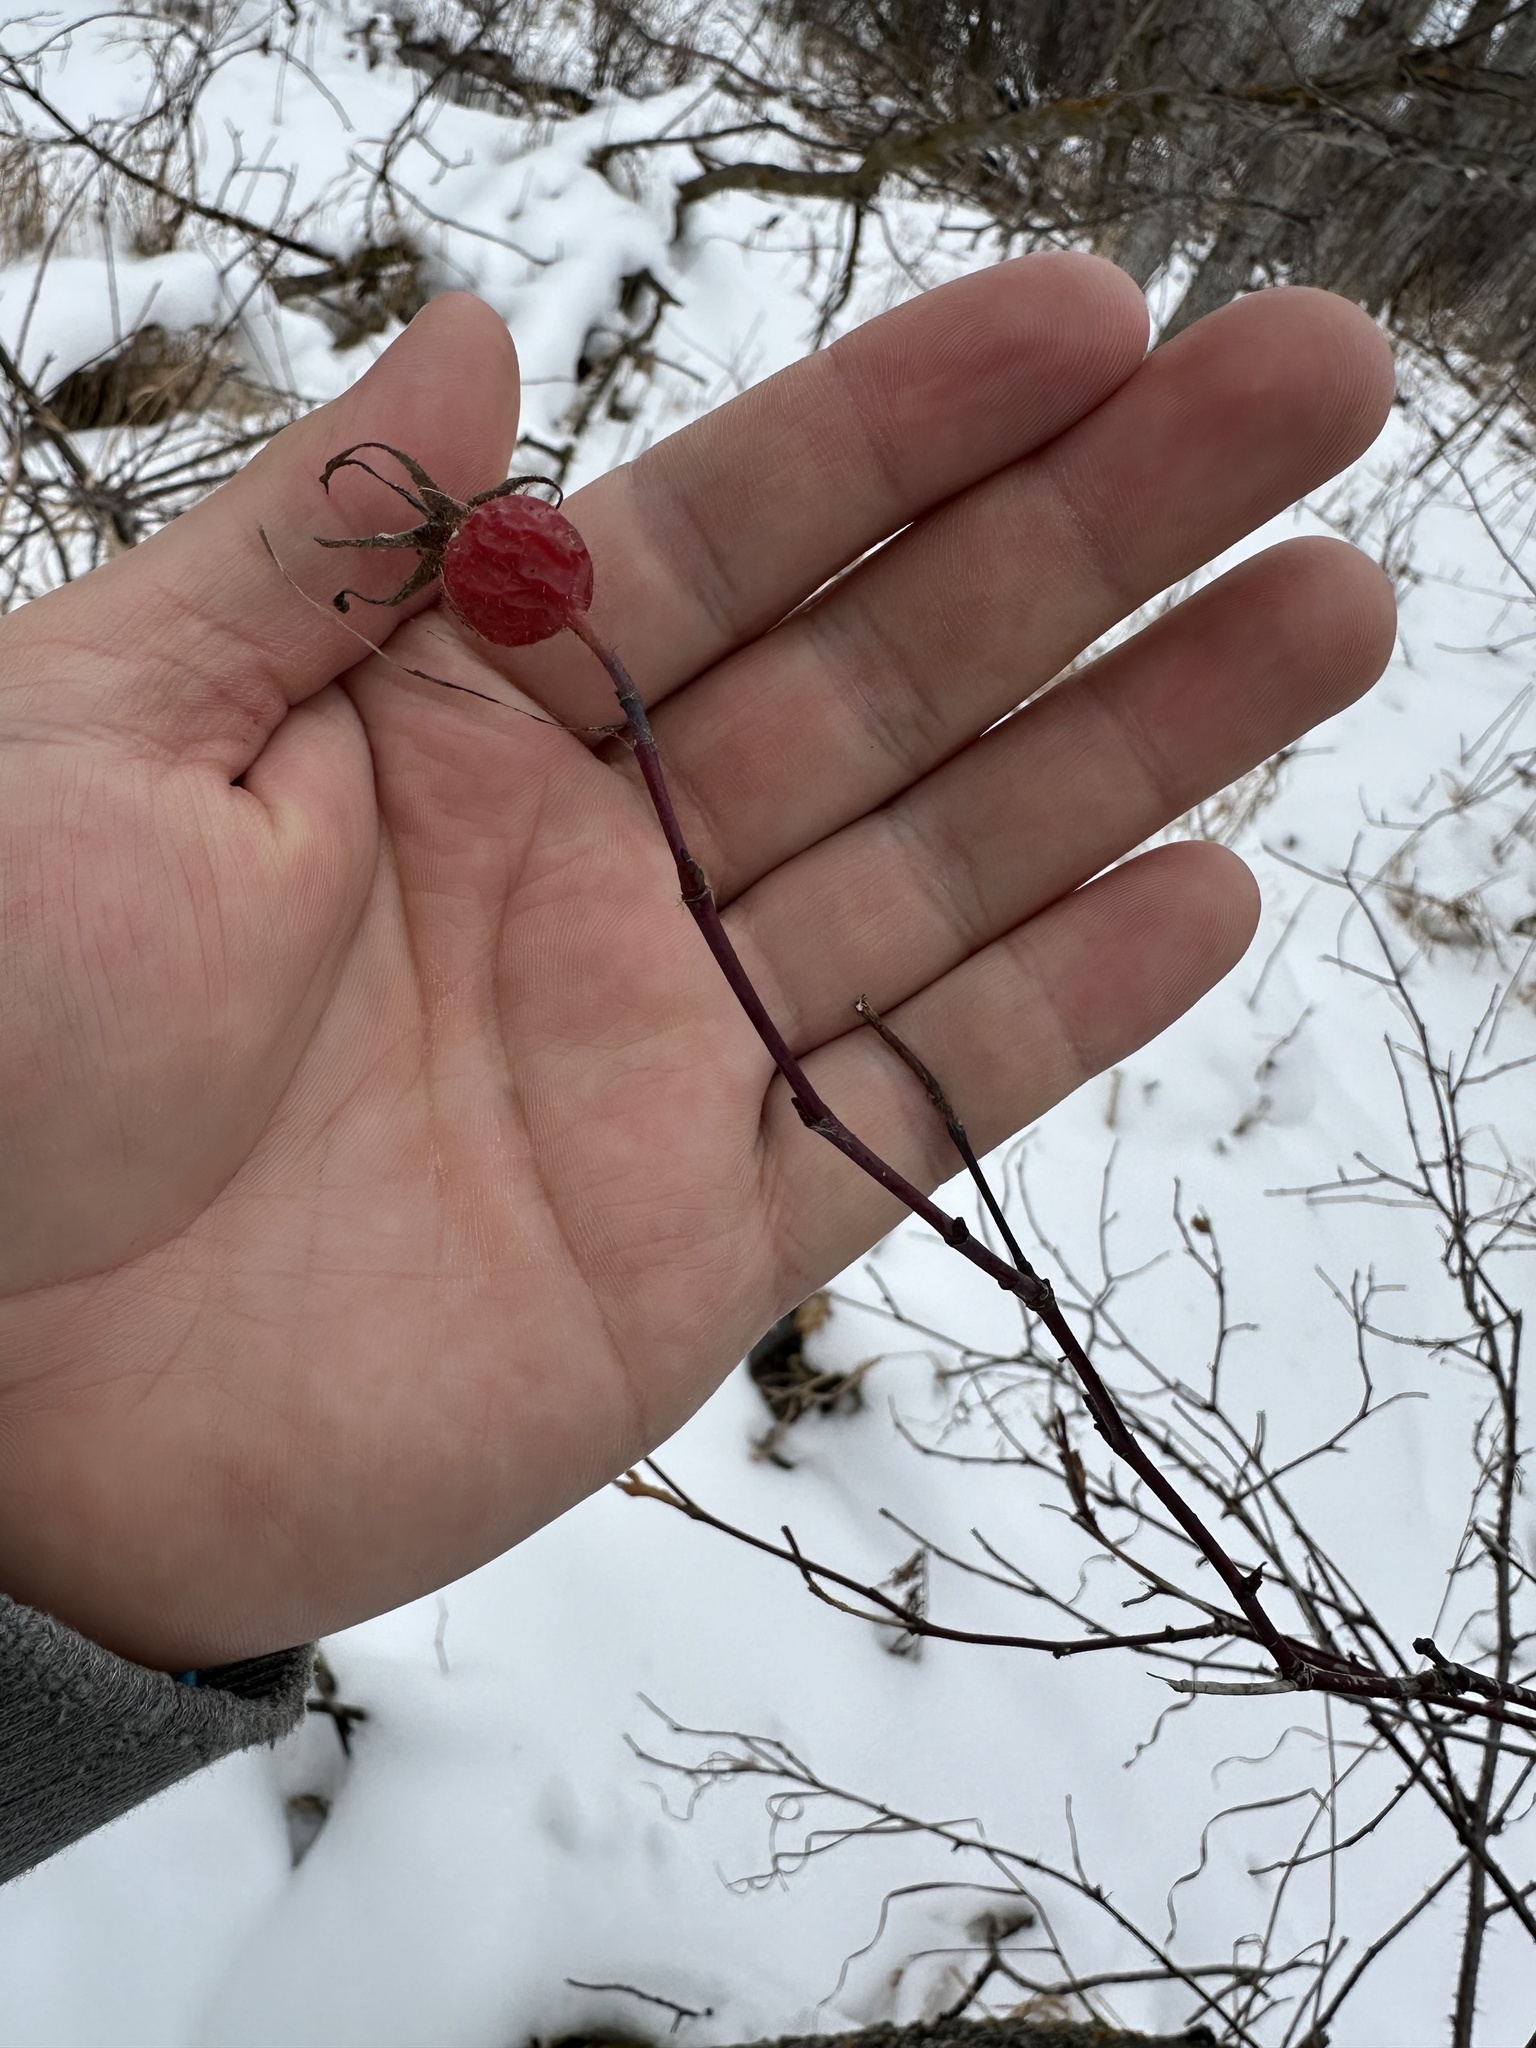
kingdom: Plantae
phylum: Tracheophyta
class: Magnoliopsida
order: Rosales
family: Rosaceae
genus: Rosa
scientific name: Rosa woodsii
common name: Woods's rose
